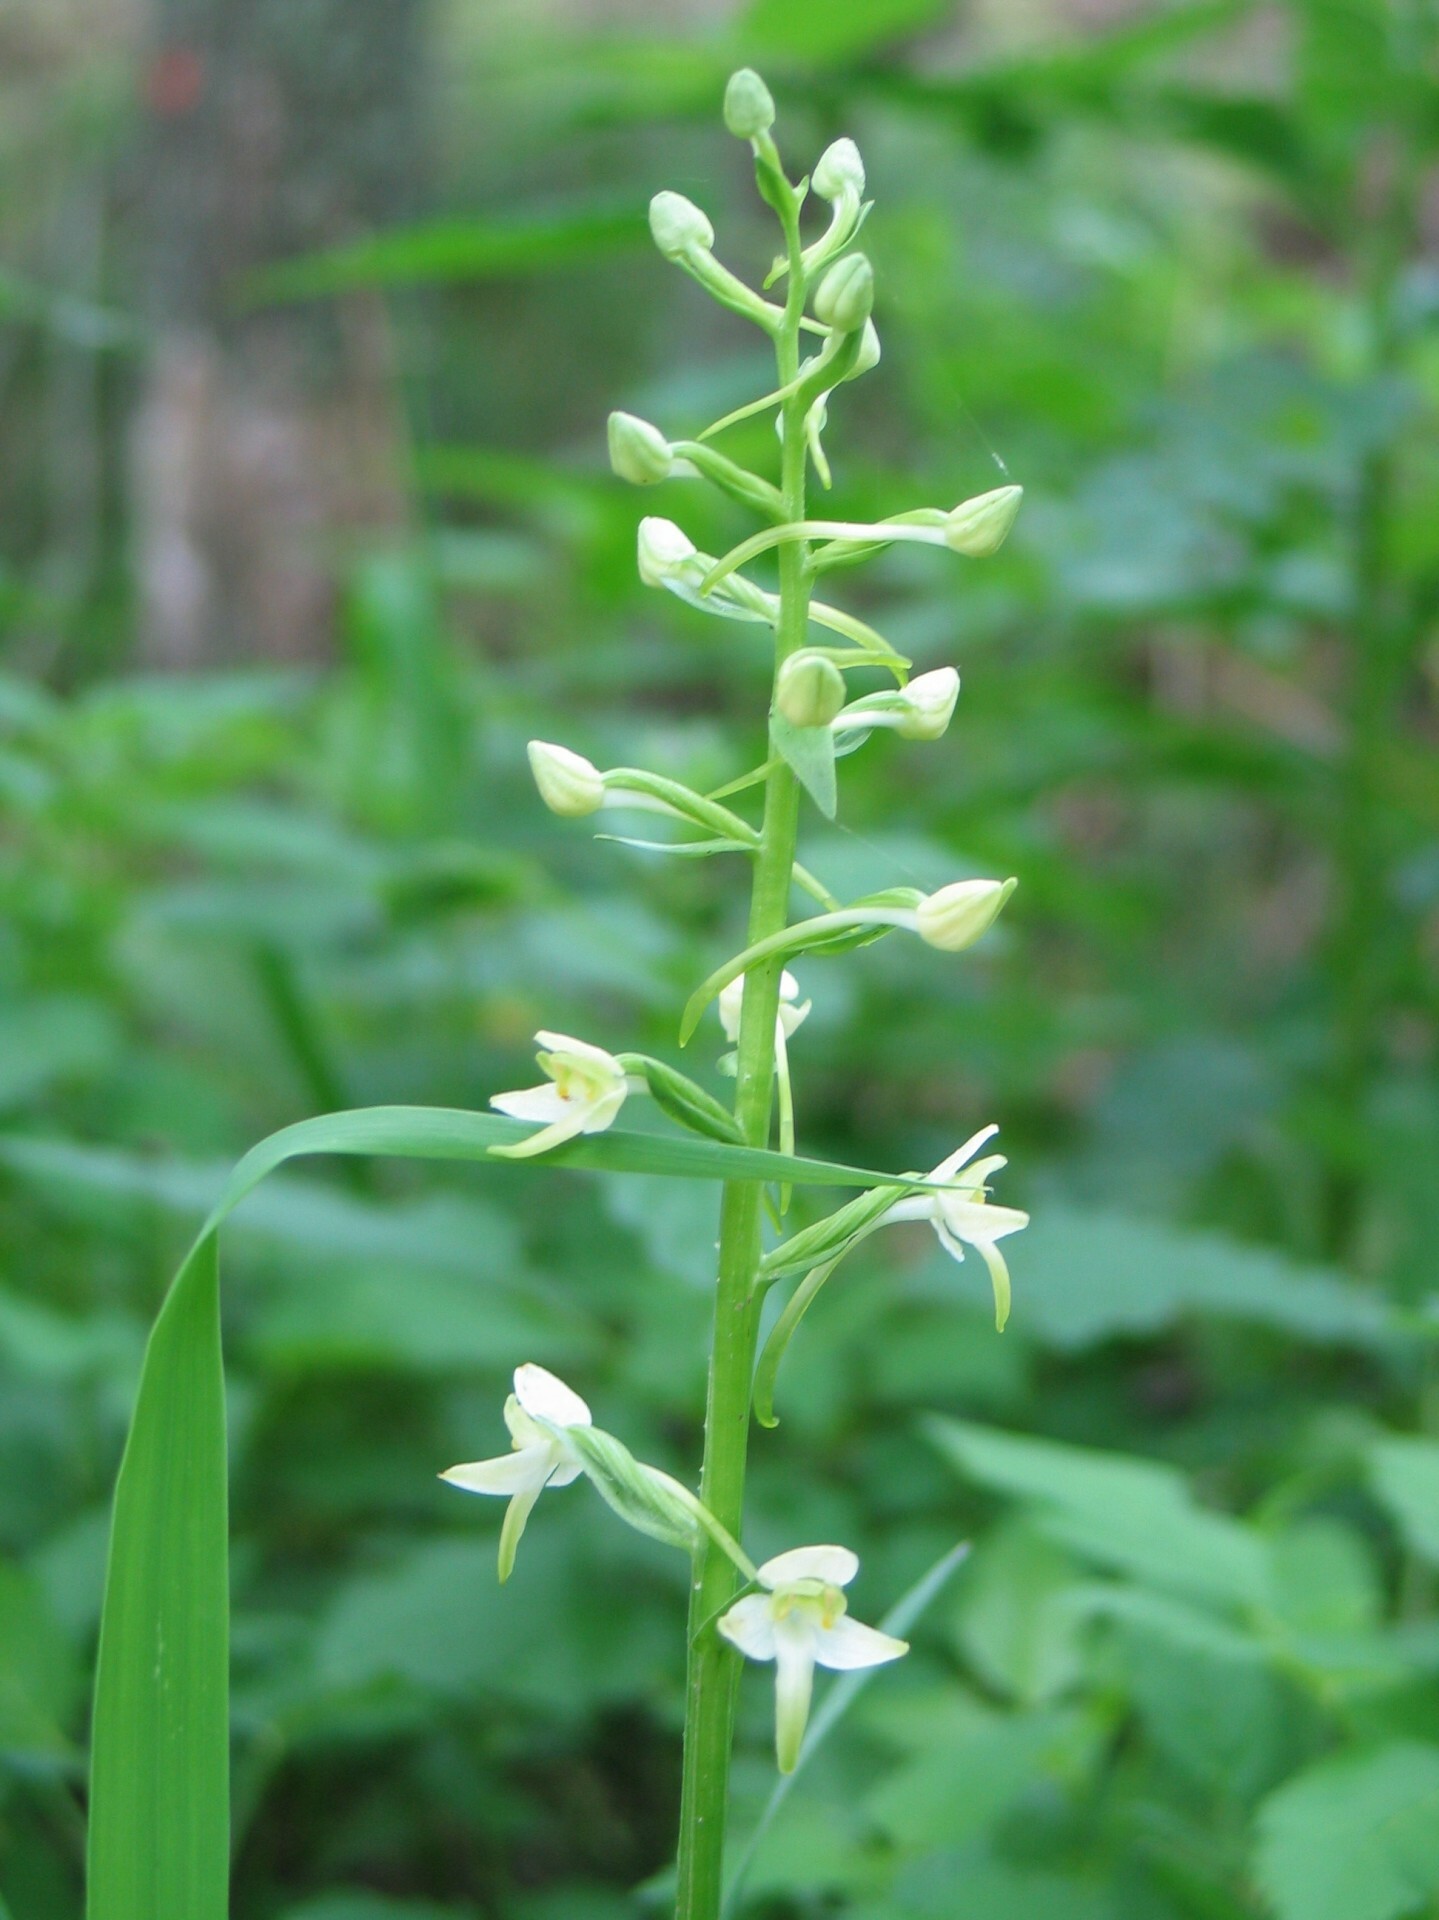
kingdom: Plantae
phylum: Tracheophyta
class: Liliopsida
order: Asparagales
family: Orchidaceae
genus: Platanthera
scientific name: Platanthera chlorantha
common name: Greater butterfly-orchid
